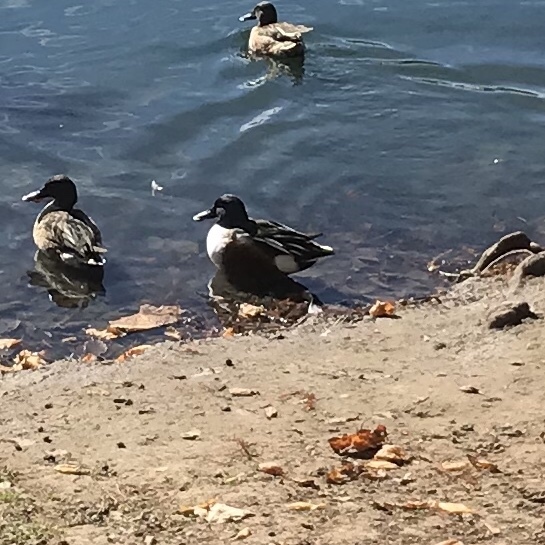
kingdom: Animalia
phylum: Chordata
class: Aves
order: Anseriformes
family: Anatidae
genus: Spatula
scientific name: Spatula clypeata
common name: Northern shoveler
